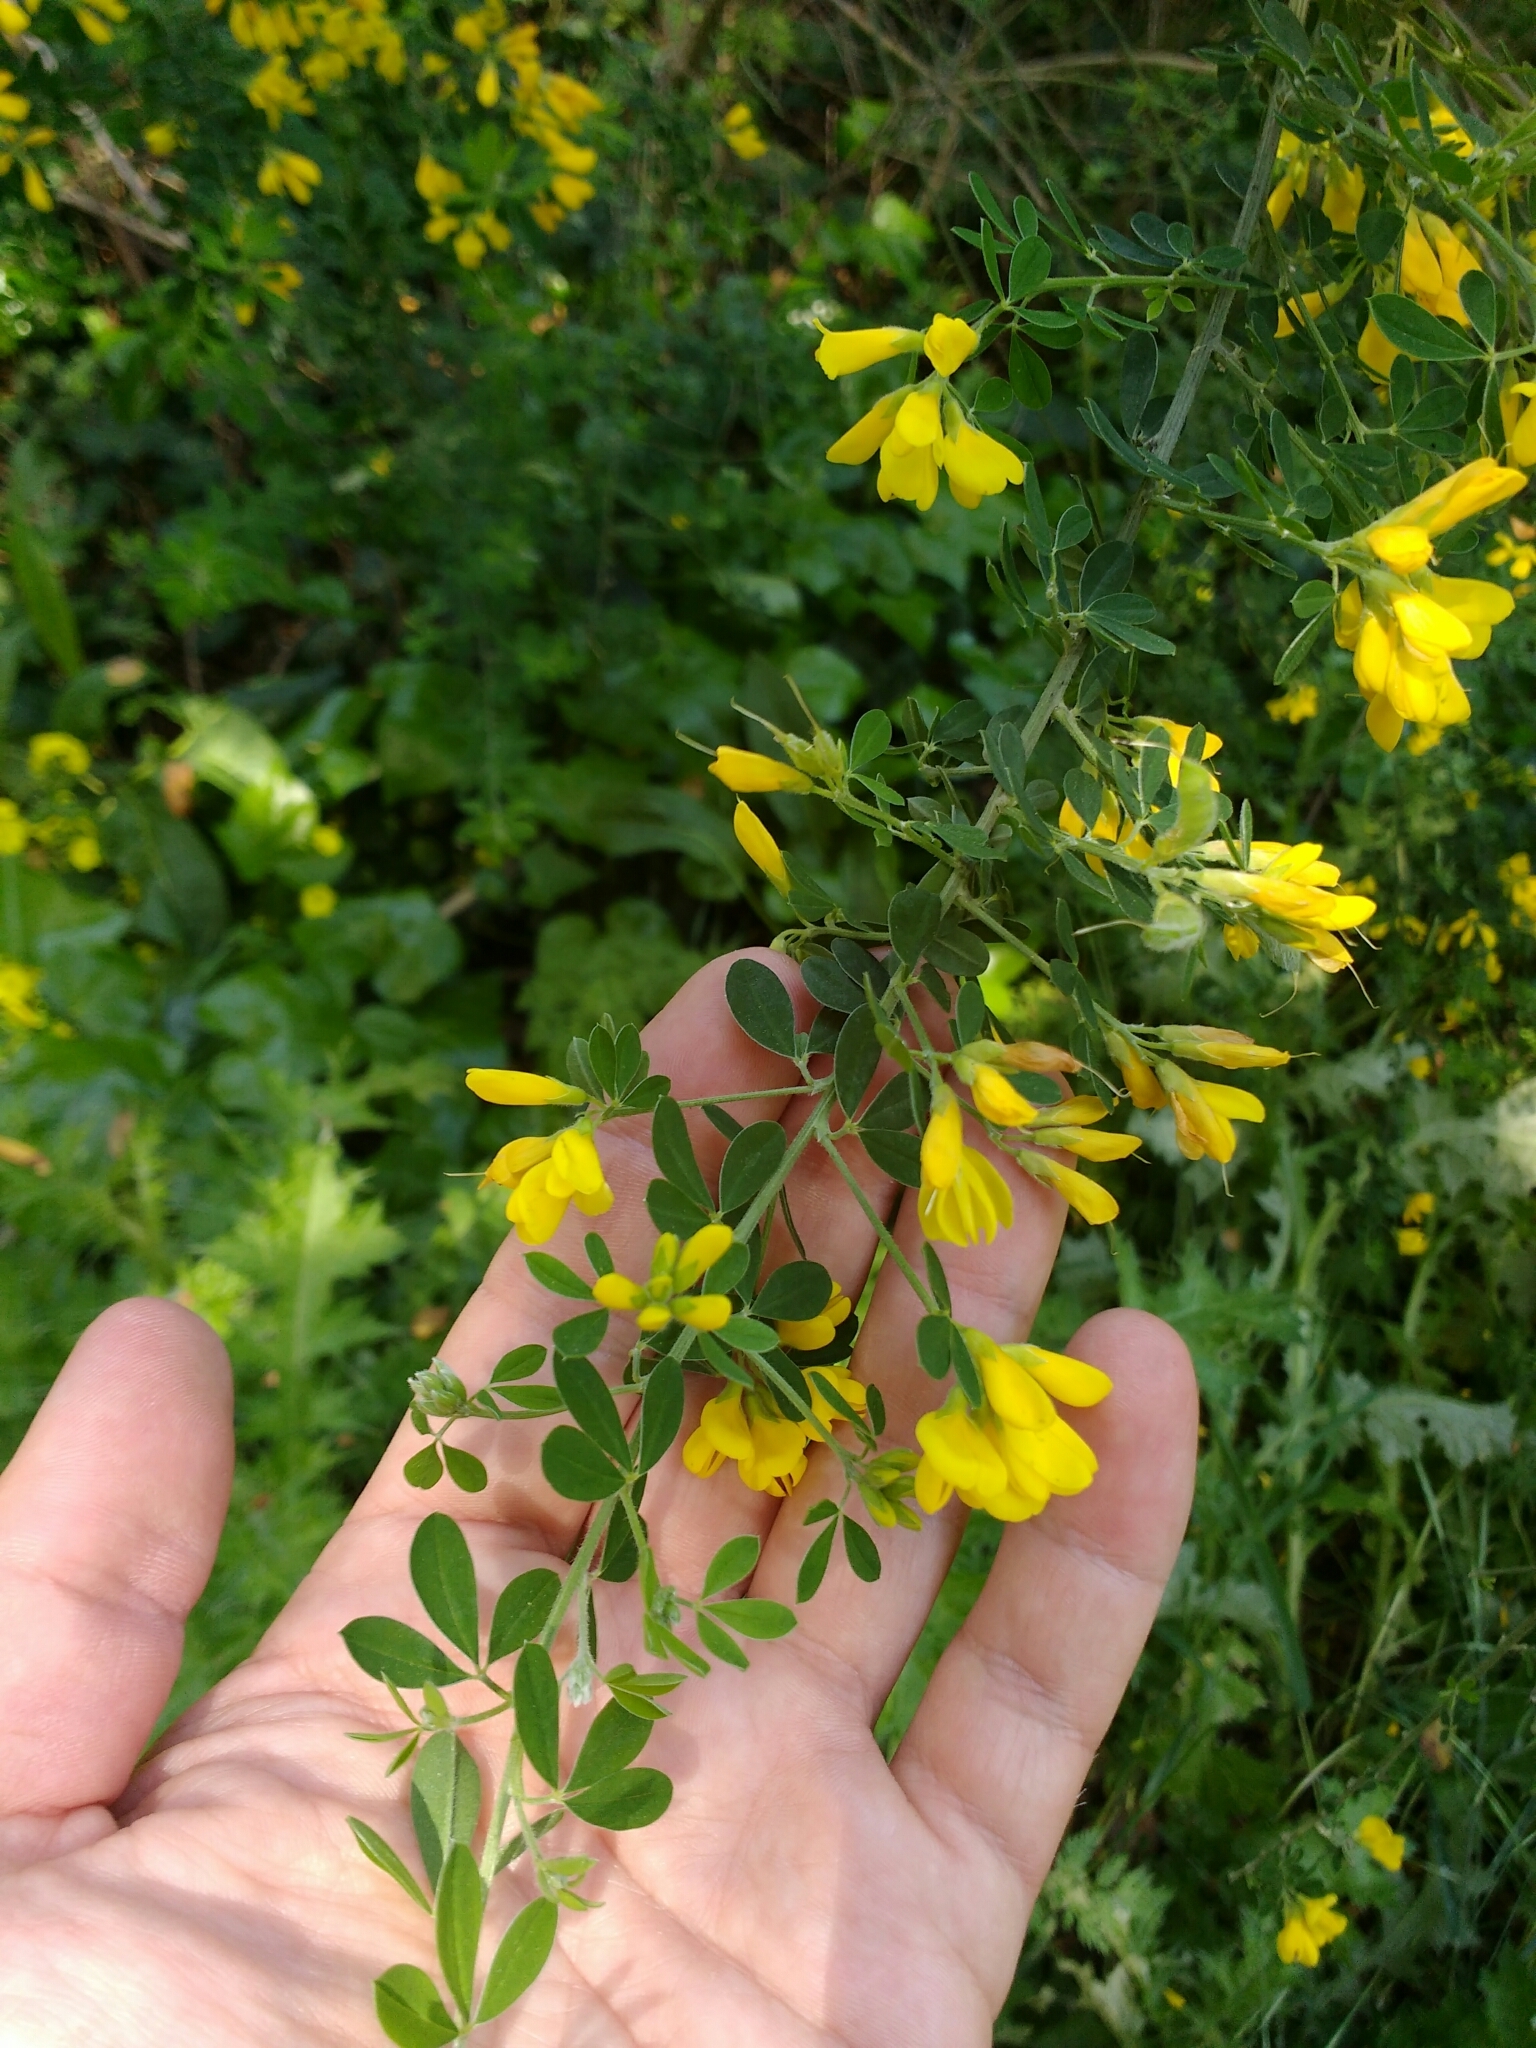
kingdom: Plantae
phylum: Tracheophyta
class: Magnoliopsida
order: Fabales
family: Fabaceae
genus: Genista
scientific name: Genista monspessulana
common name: Montpellier broom
